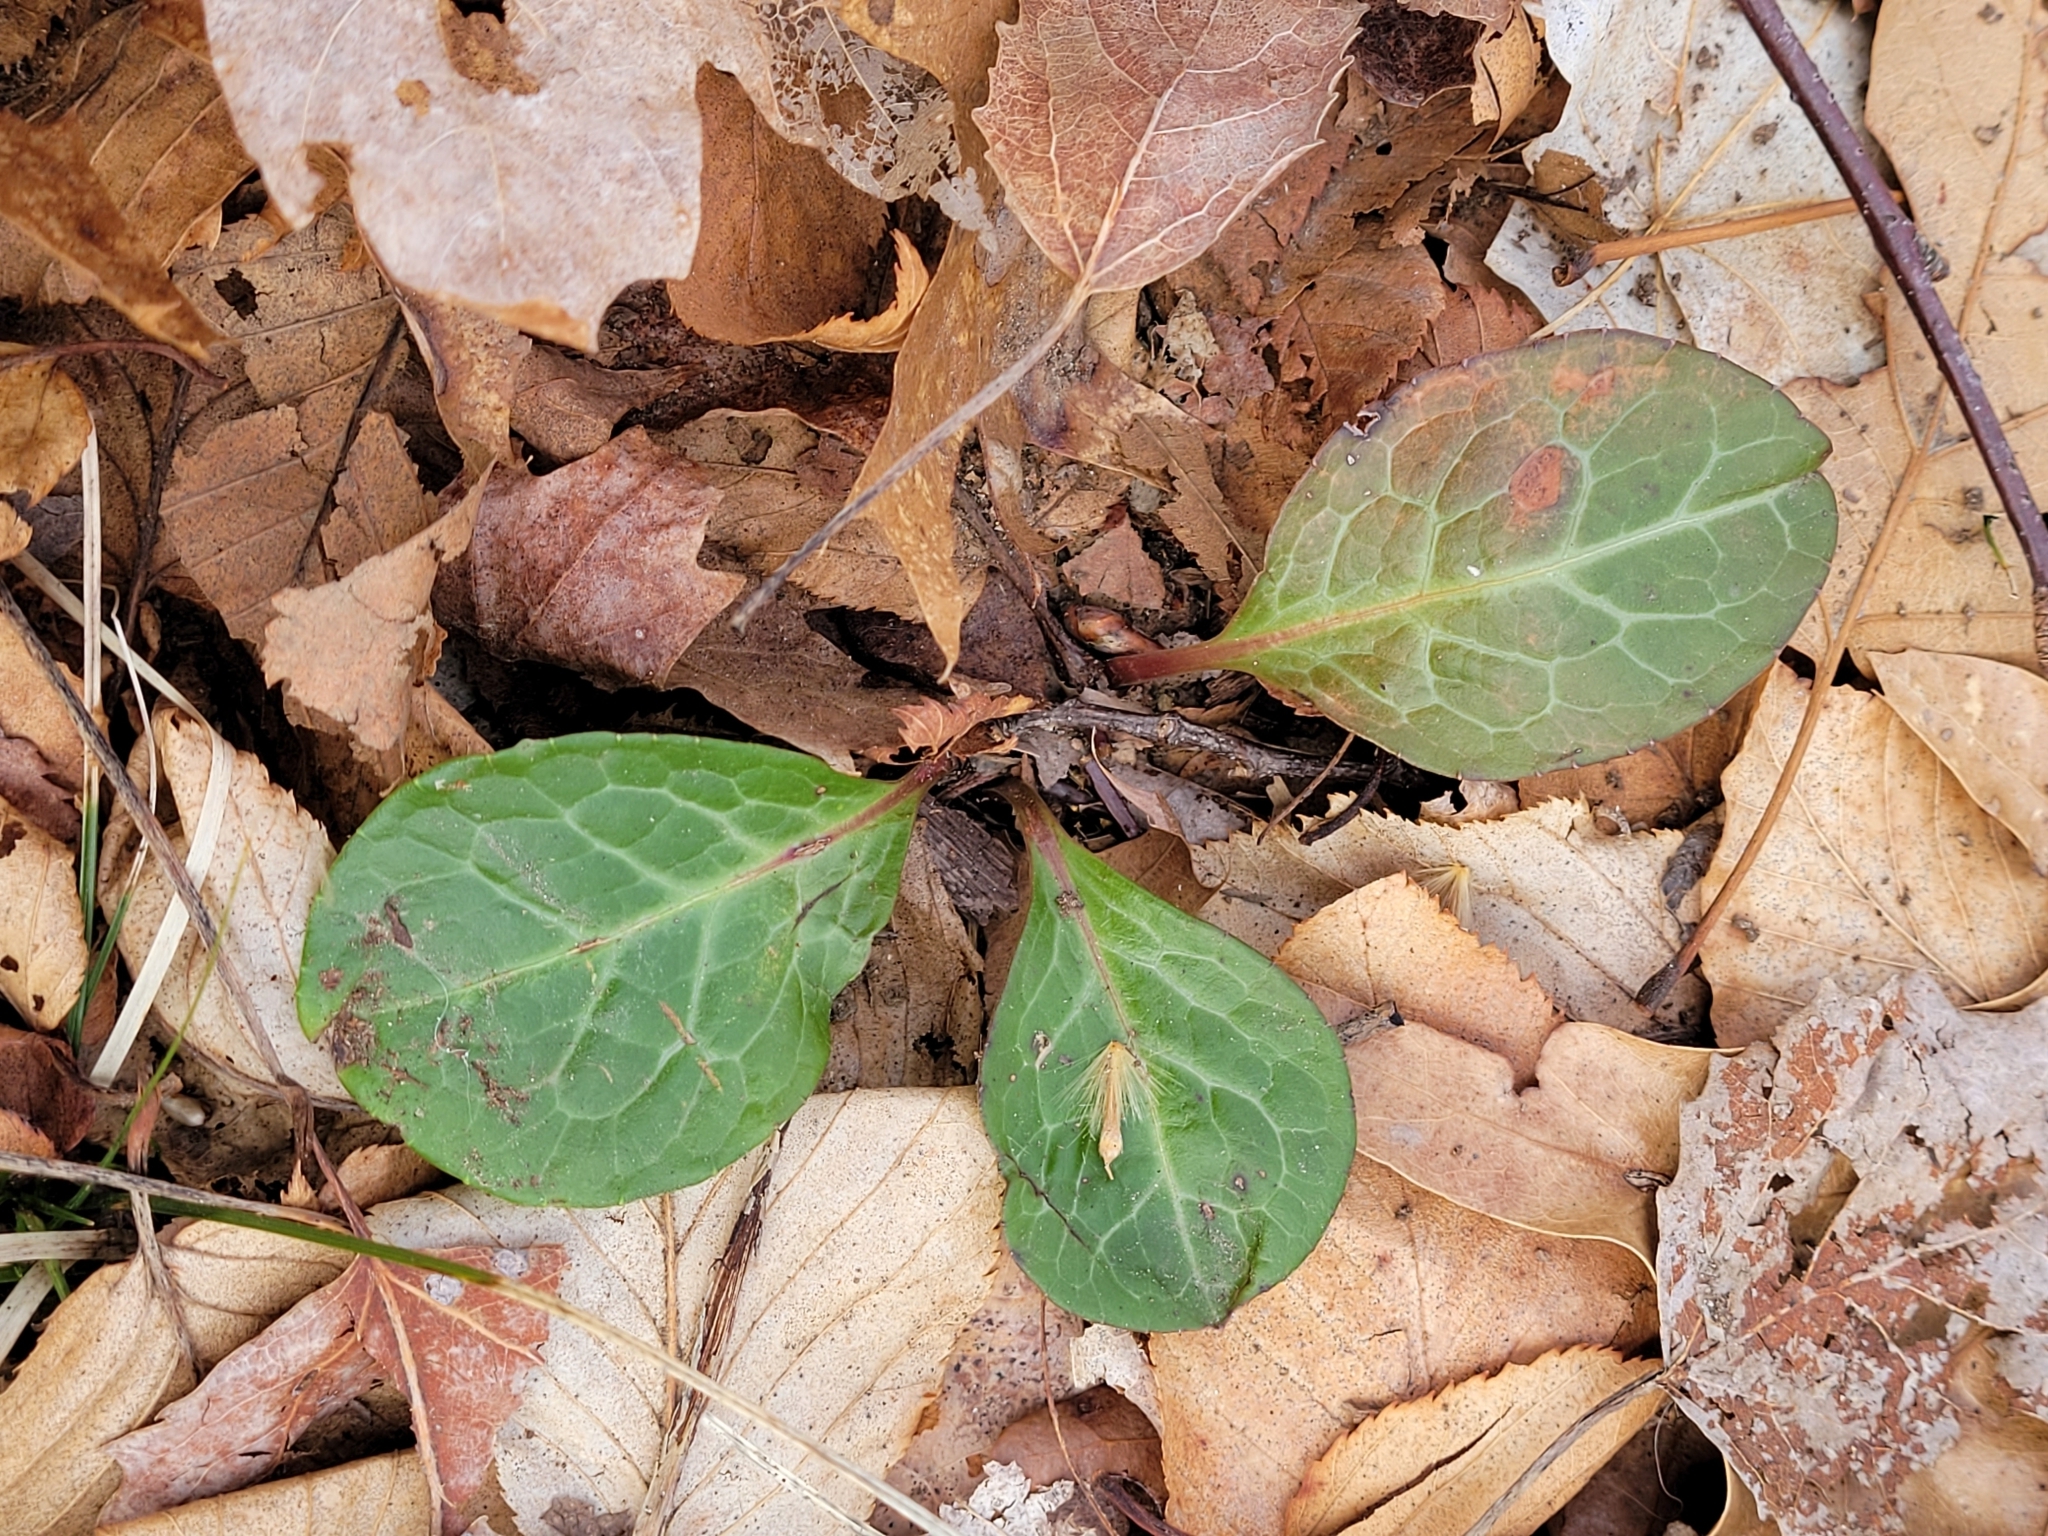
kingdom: Plantae
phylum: Tracheophyta
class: Magnoliopsida
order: Ericales
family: Ericaceae
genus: Pyrola
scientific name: Pyrola americana
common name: American wintergreen
